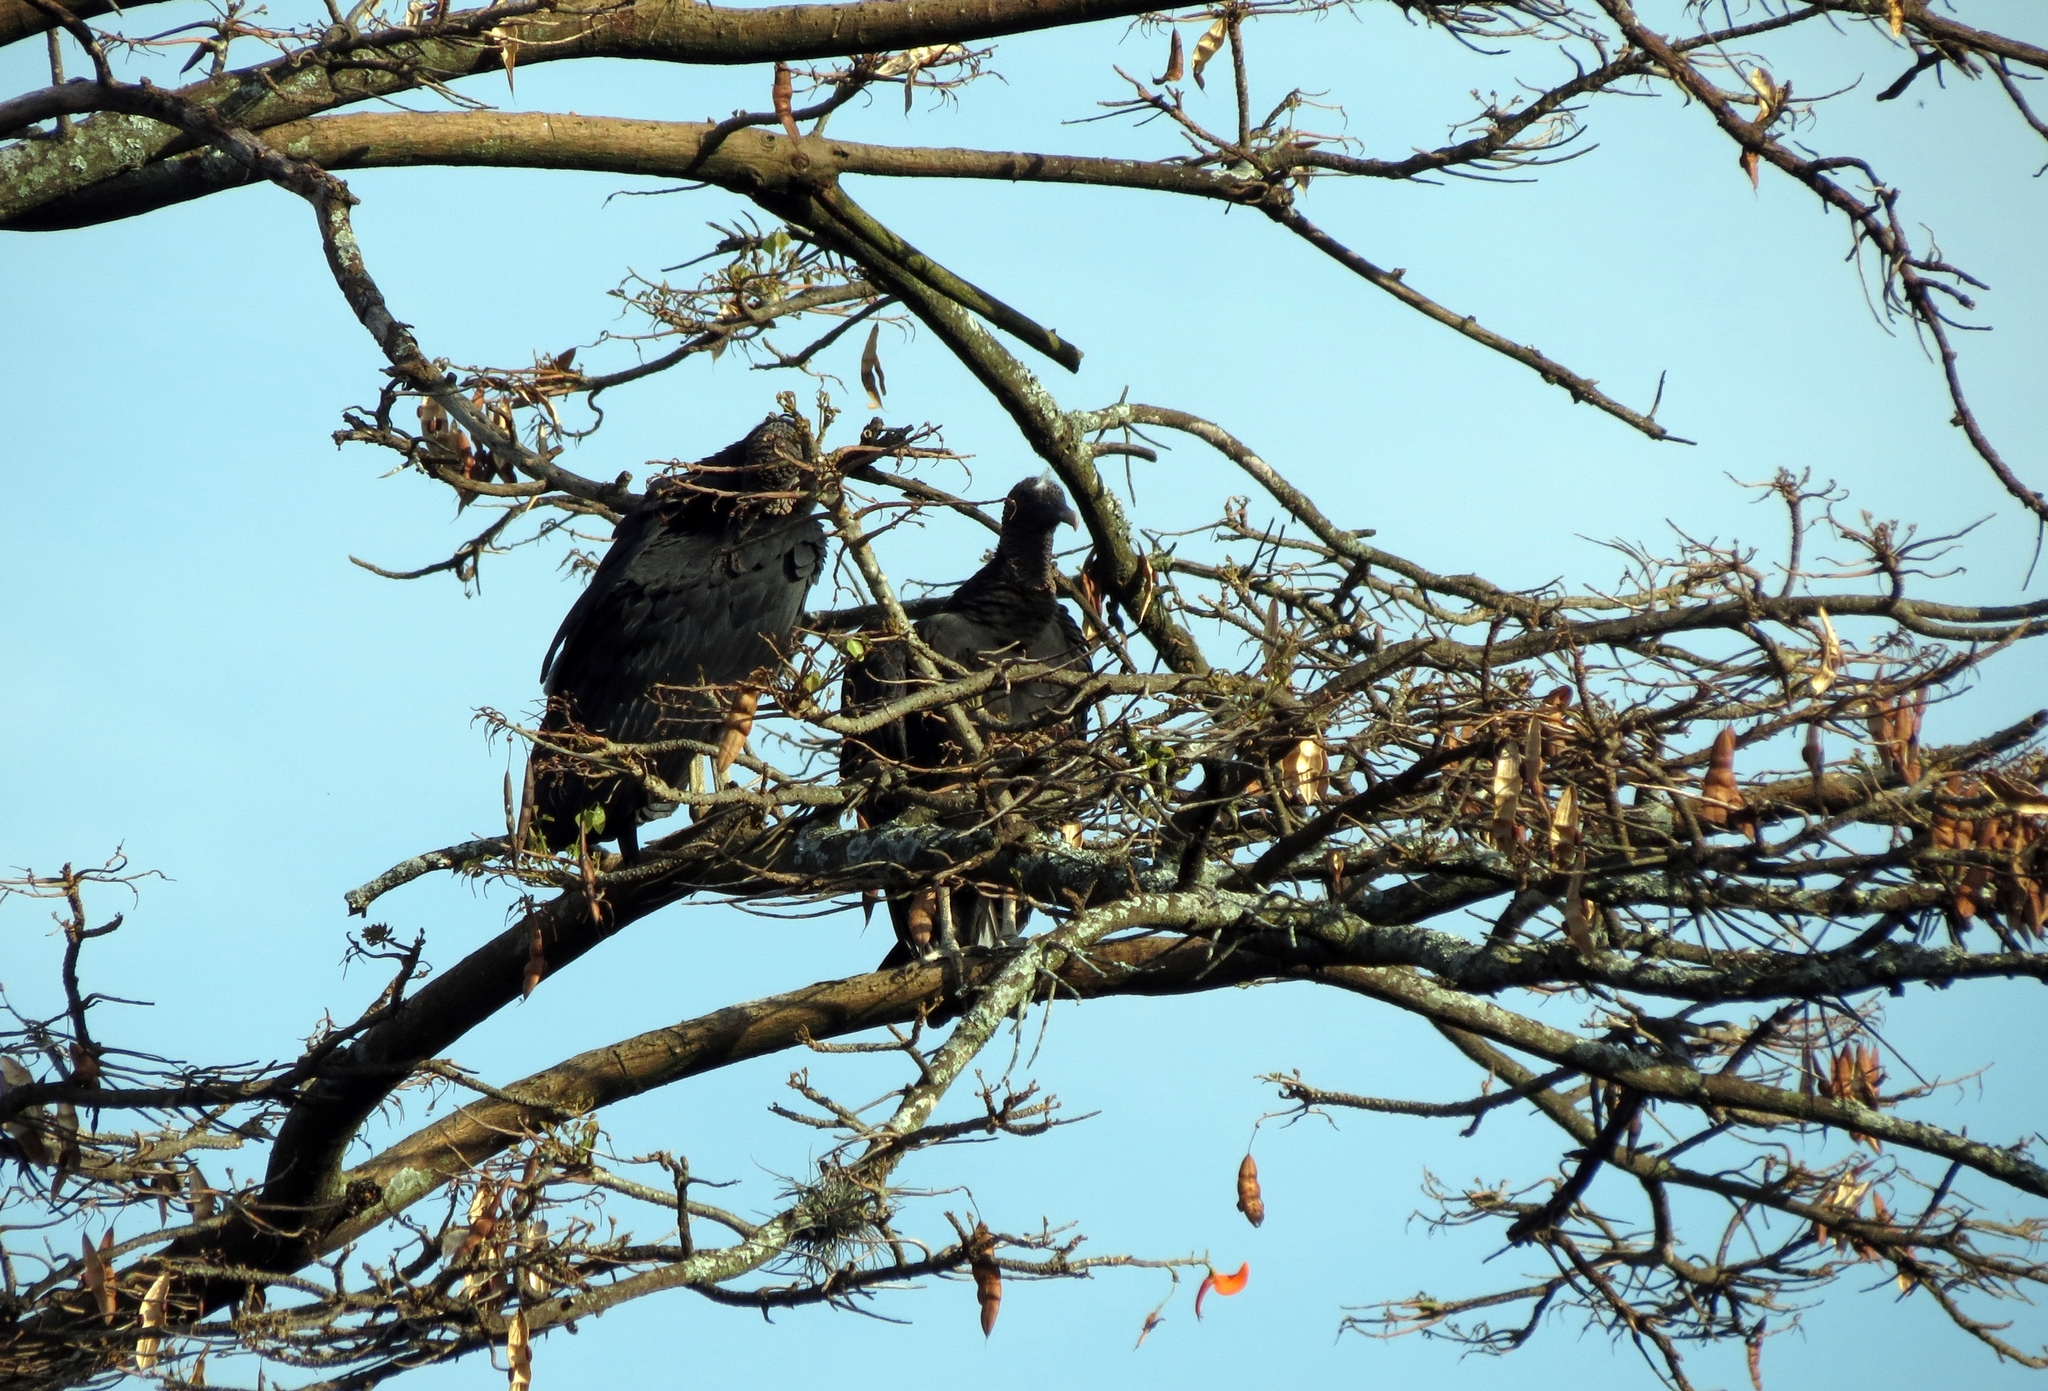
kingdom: Animalia
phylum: Chordata
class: Aves
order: Accipitriformes
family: Cathartidae
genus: Coragyps
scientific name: Coragyps atratus
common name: Black vulture
